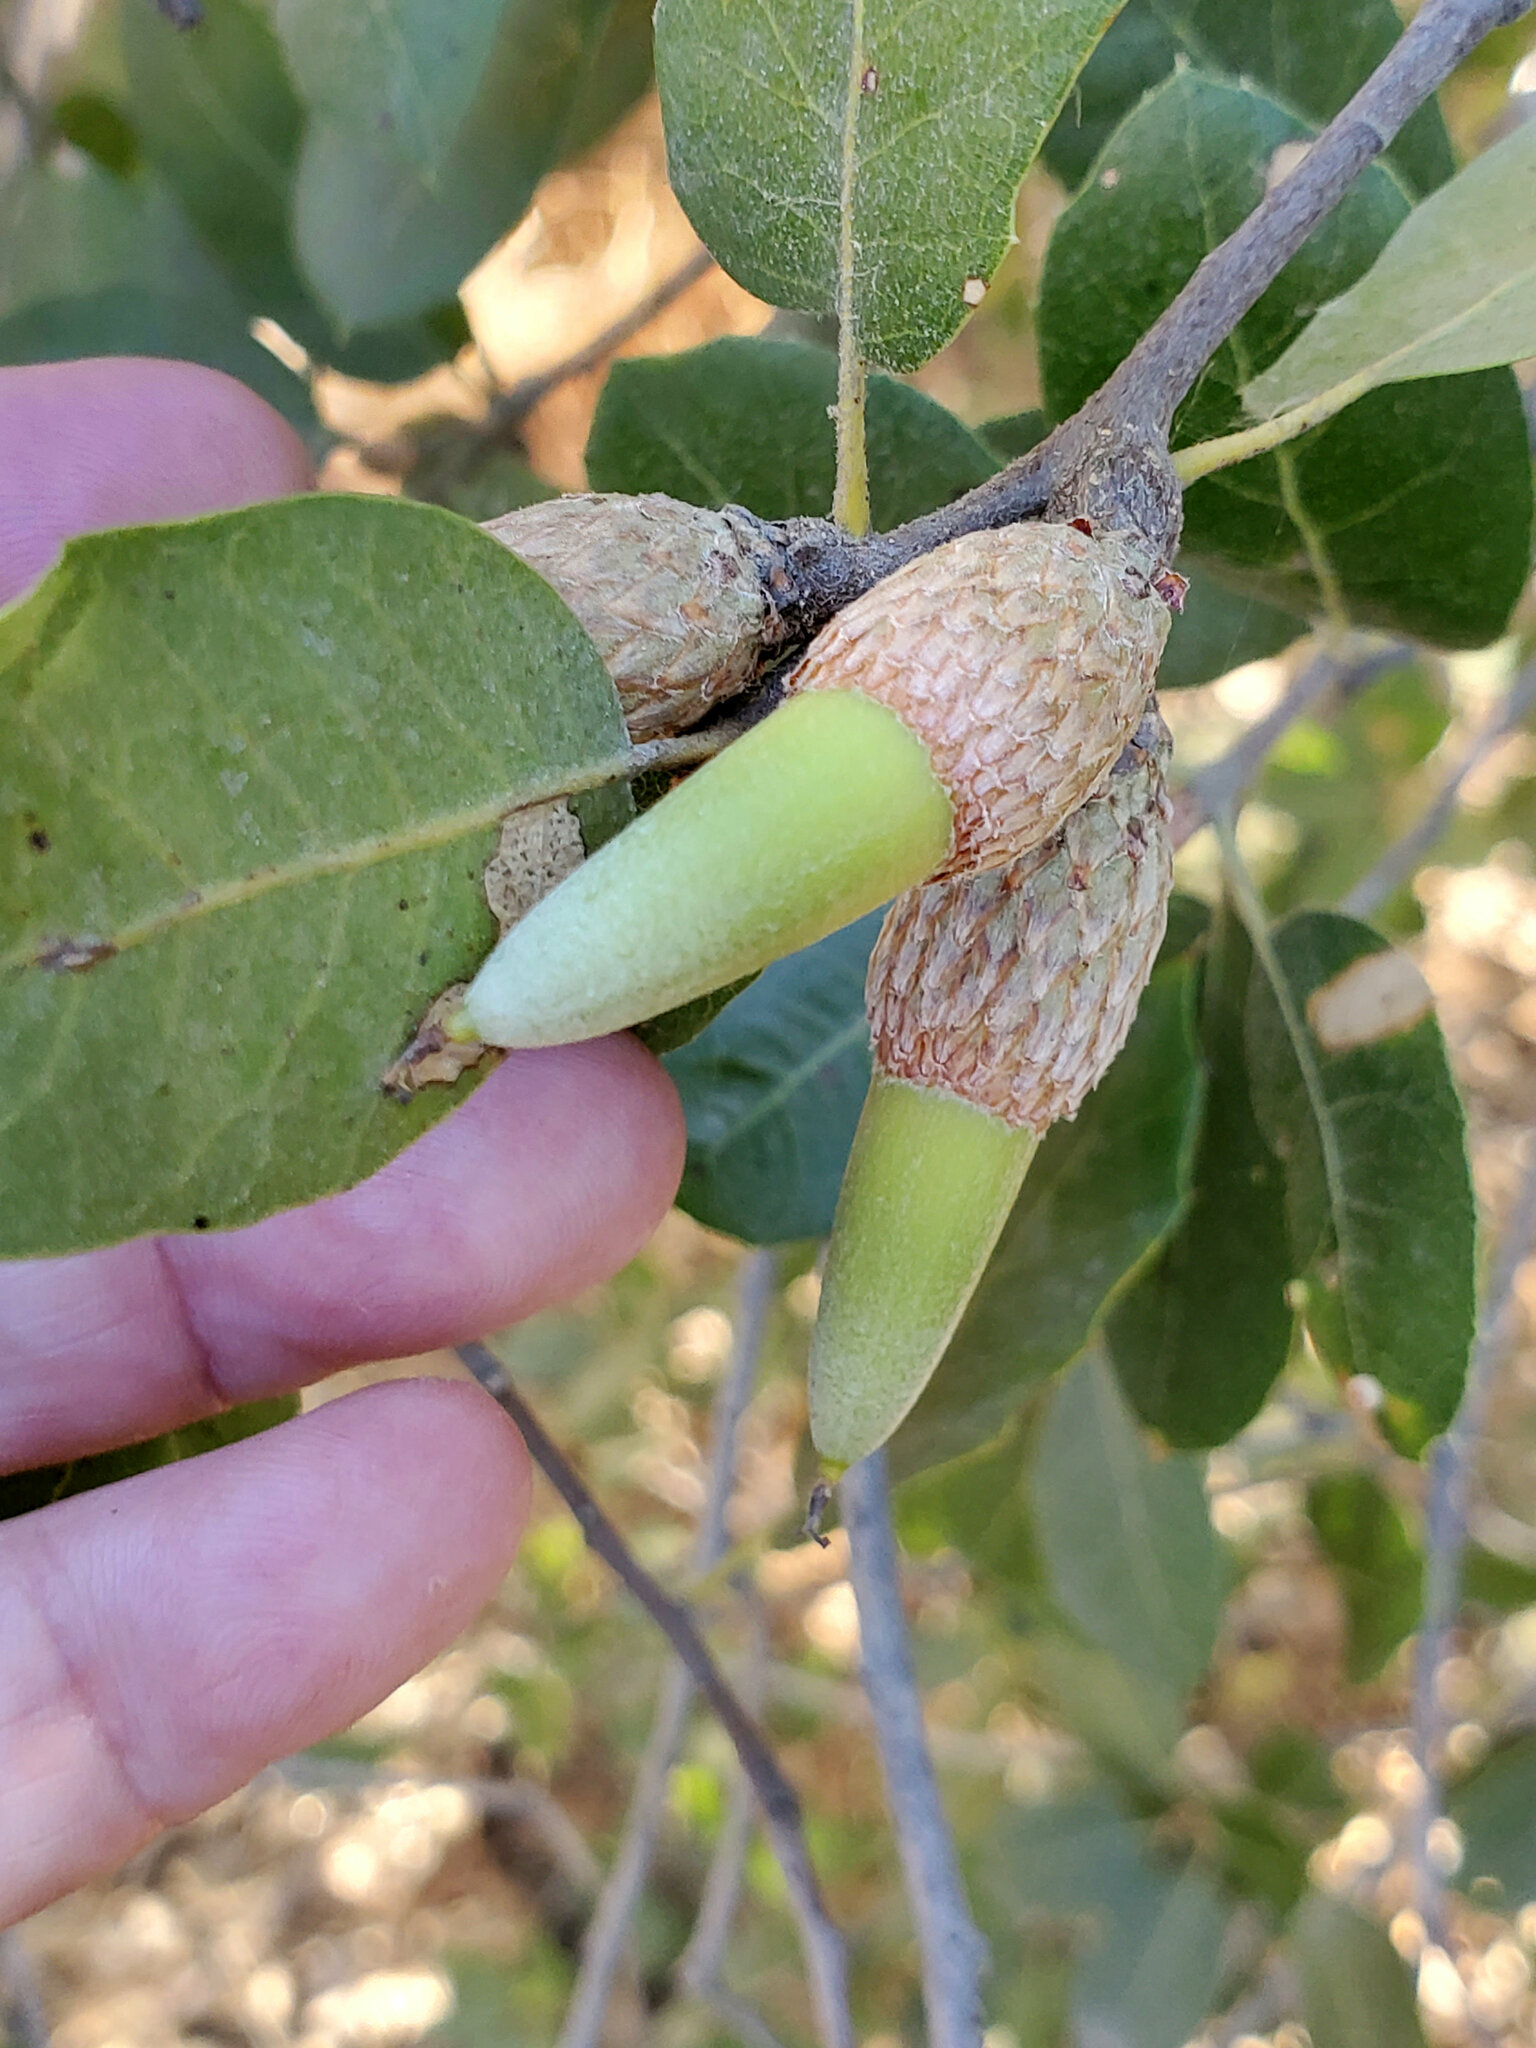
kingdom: Plantae
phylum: Tracheophyta
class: Magnoliopsida
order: Fagales
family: Fagaceae
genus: Quercus
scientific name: Quercus wislizeni
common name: Interior live oak
